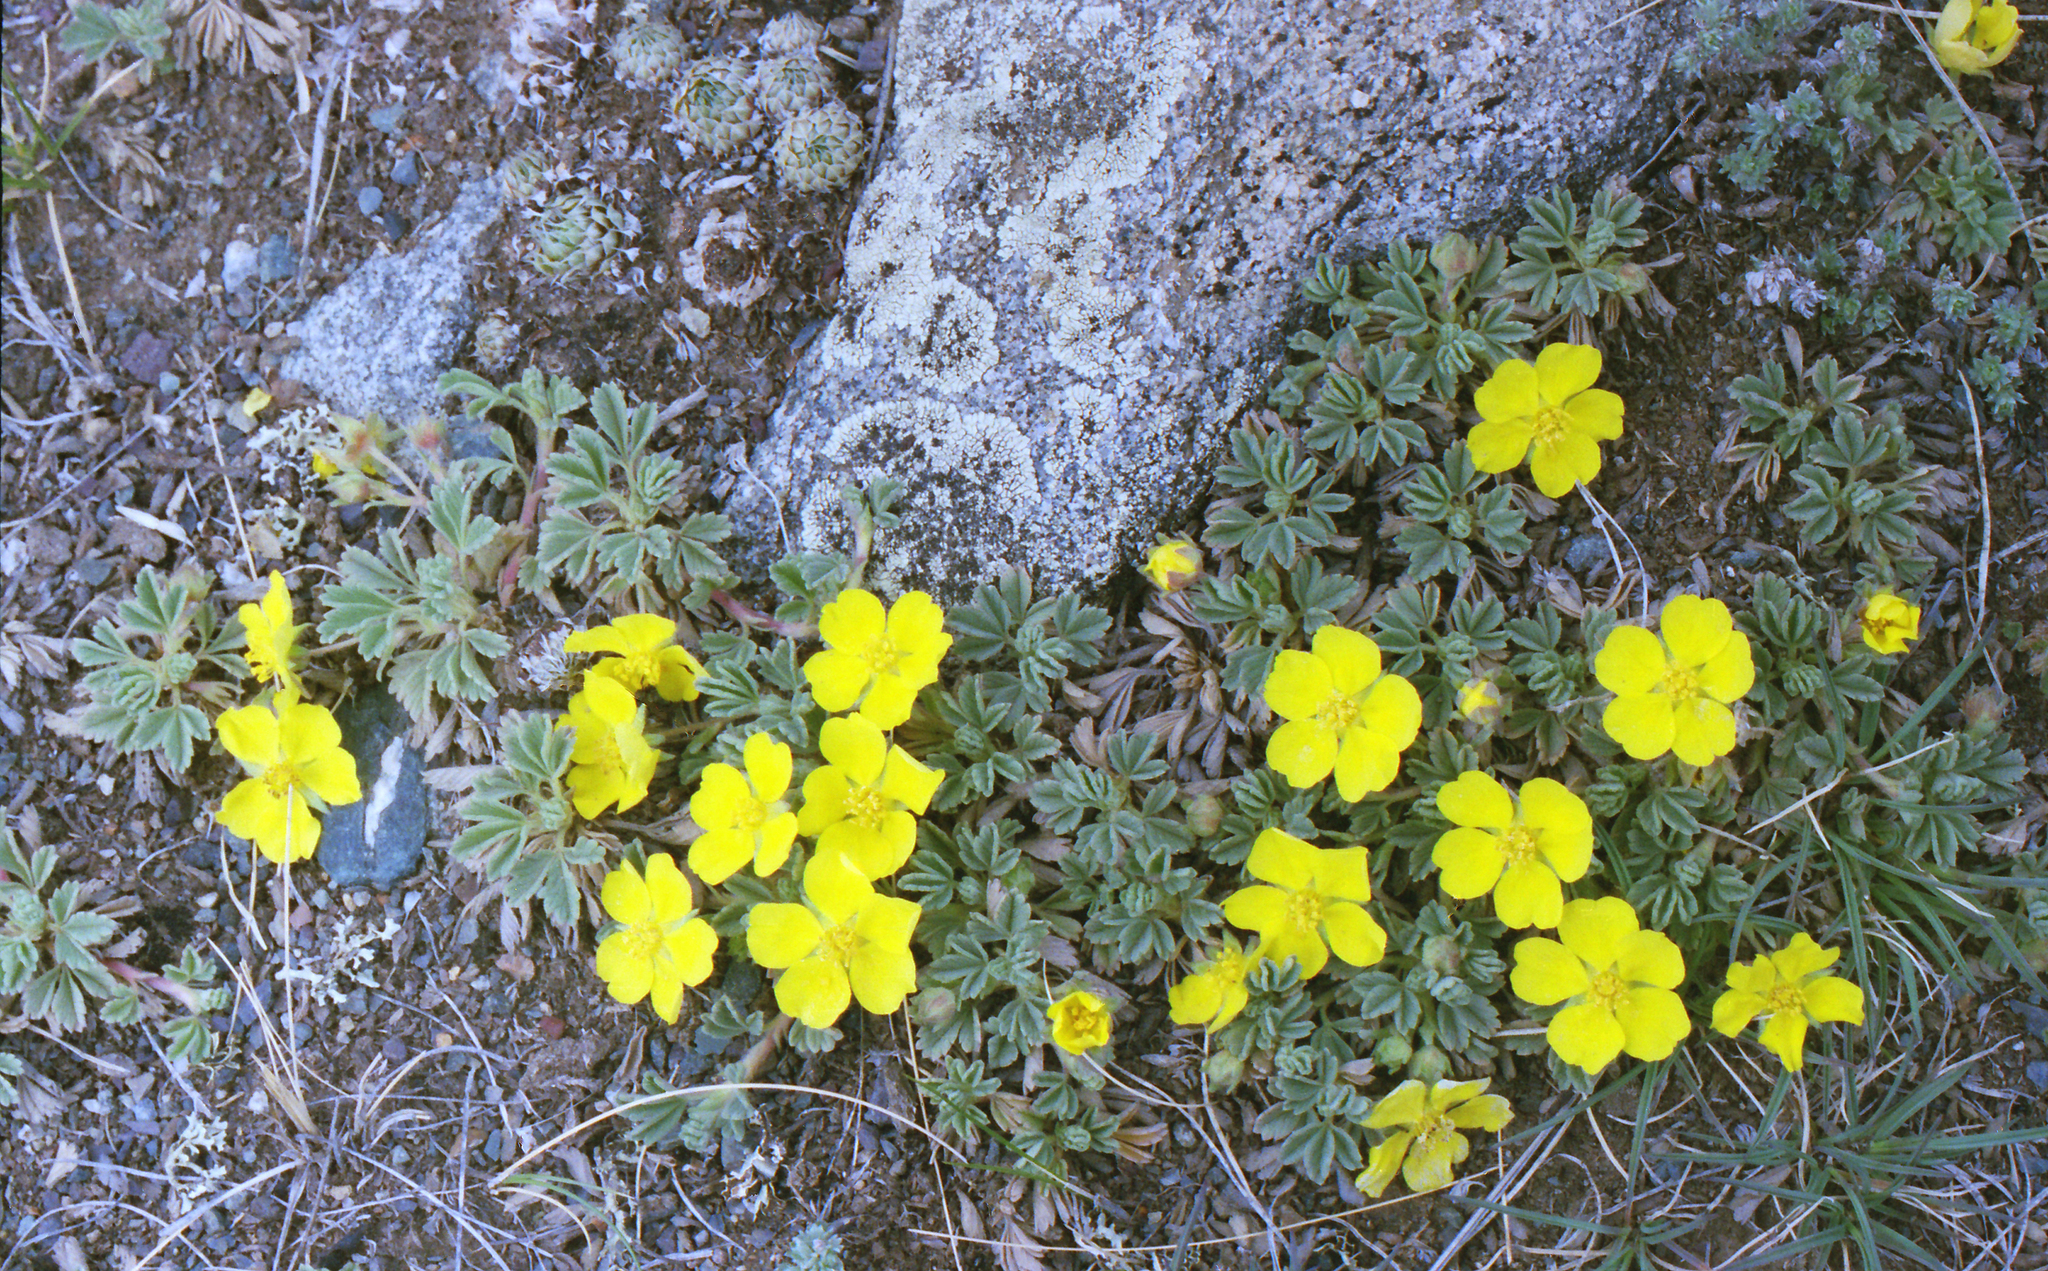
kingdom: Plantae
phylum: Tracheophyta
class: Magnoliopsida
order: Rosales
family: Rosaceae
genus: Potentilla
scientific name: Potentilla acaulis
